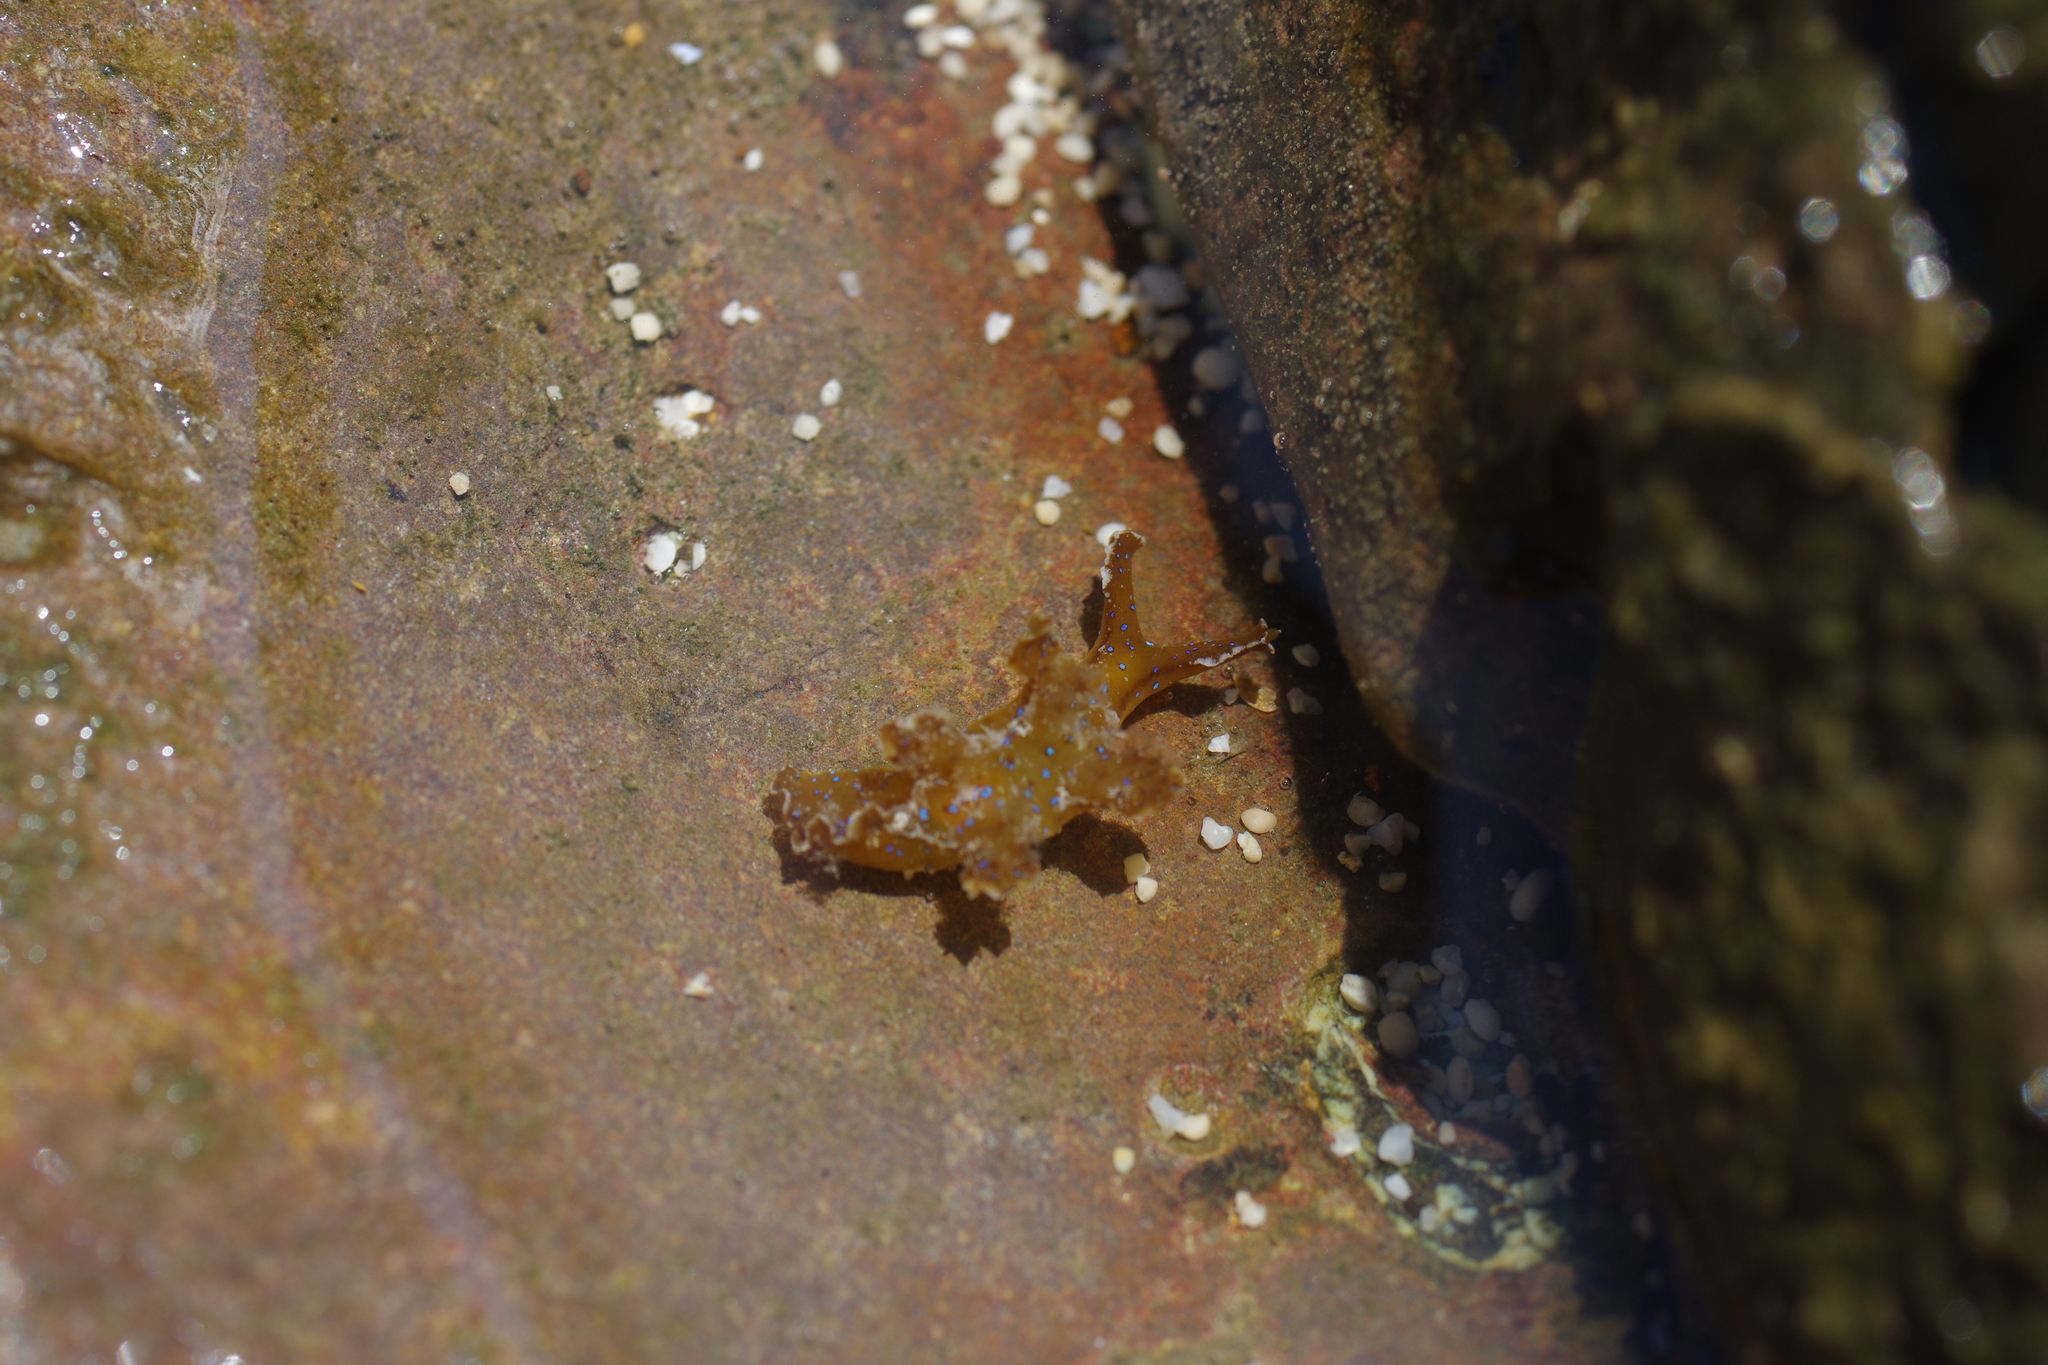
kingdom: Animalia
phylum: Mollusca
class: Gastropoda
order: Nudibranchia
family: Scyllaeidae
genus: Scyllaea
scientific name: Scyllaea fulva
